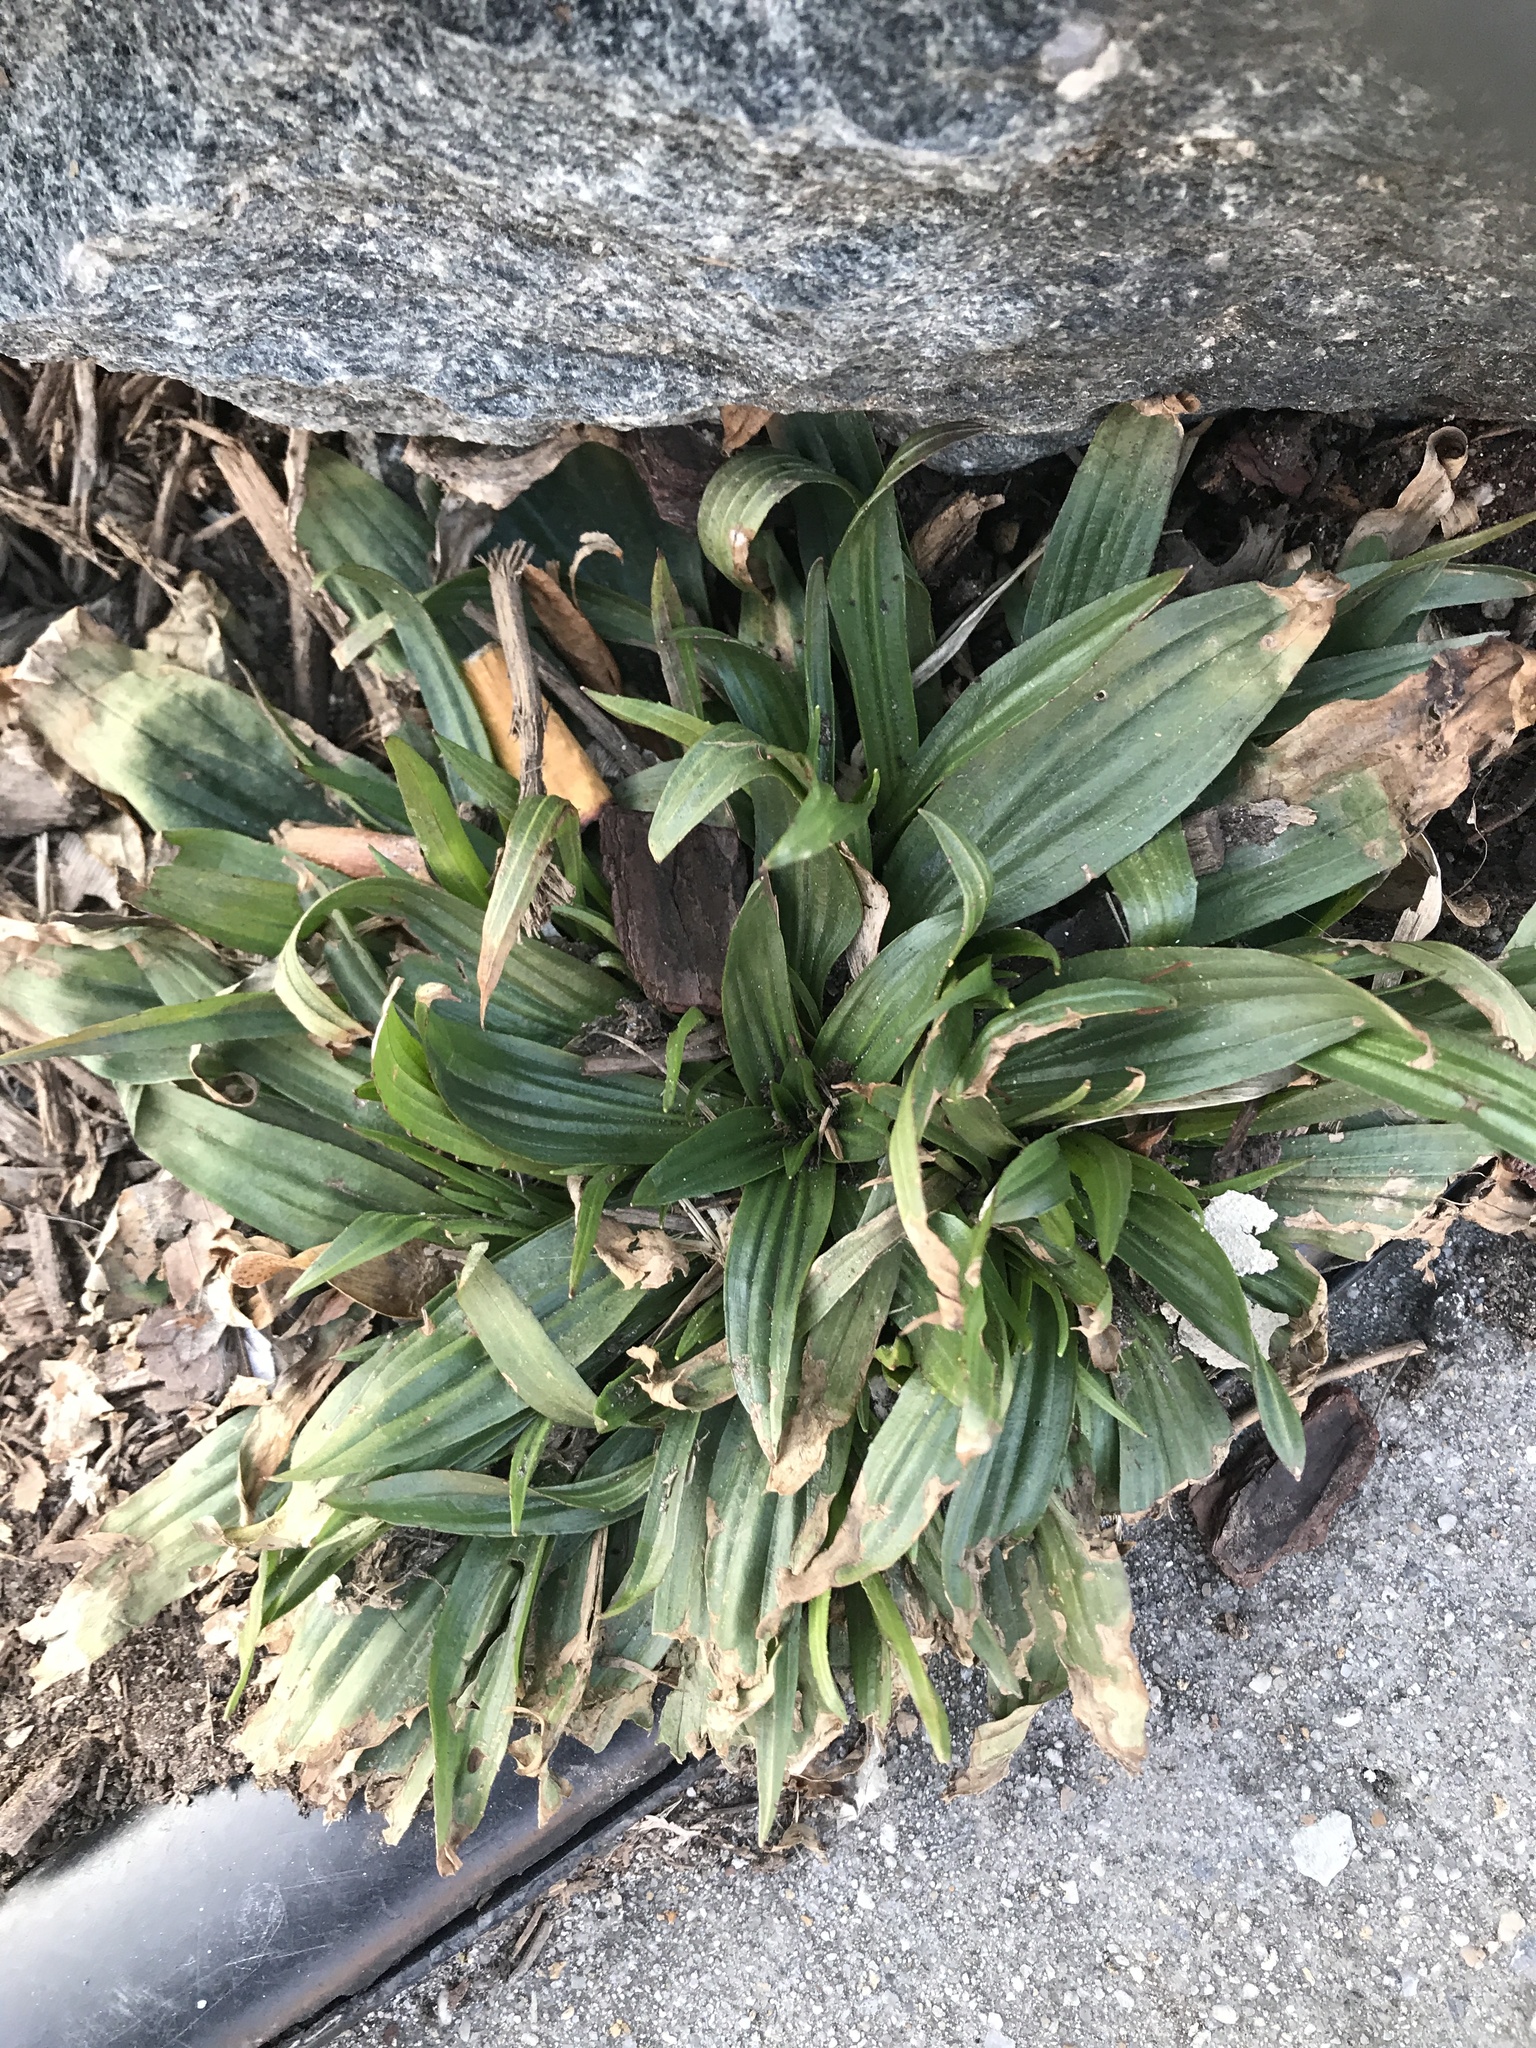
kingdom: Plantae
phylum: Tracheophyta
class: Magnoliopsida
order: Lamiales
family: Plantaginaceae
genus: Plantago
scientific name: Plantago lanceolata
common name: Ribwort plantain
